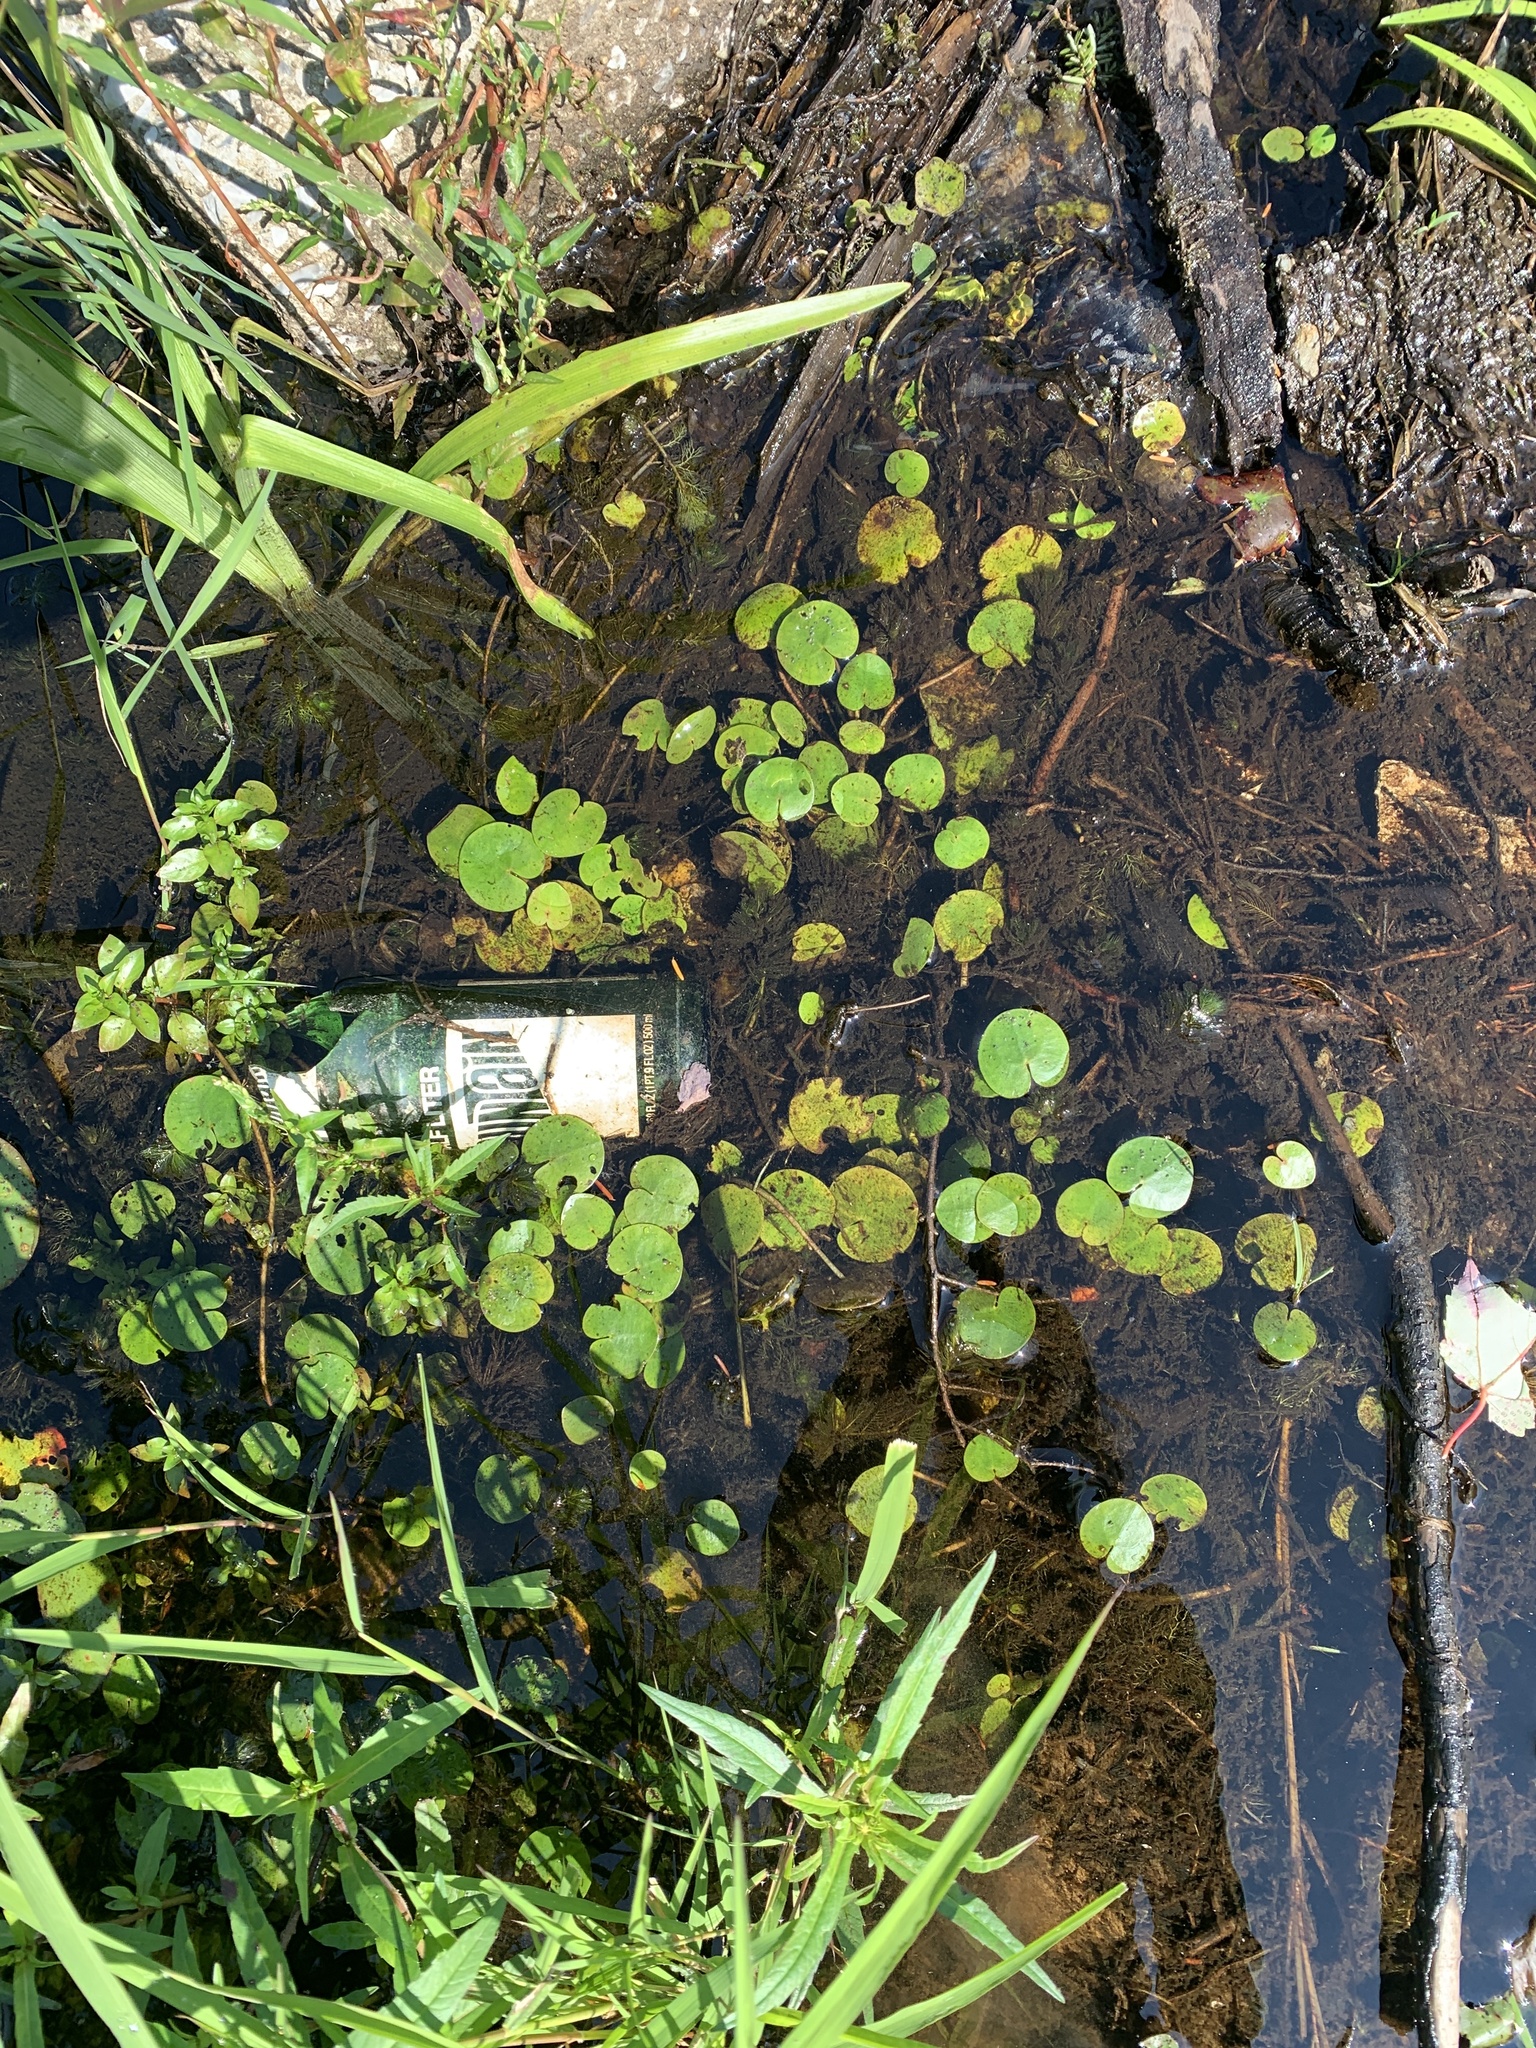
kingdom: Plantae
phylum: Tracheophyta
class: Liliopsida
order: Alismatales
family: Hydrocharitaceae
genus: Hydrocharis
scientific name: Hydrocharis morsus-ranae
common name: Frogbit
